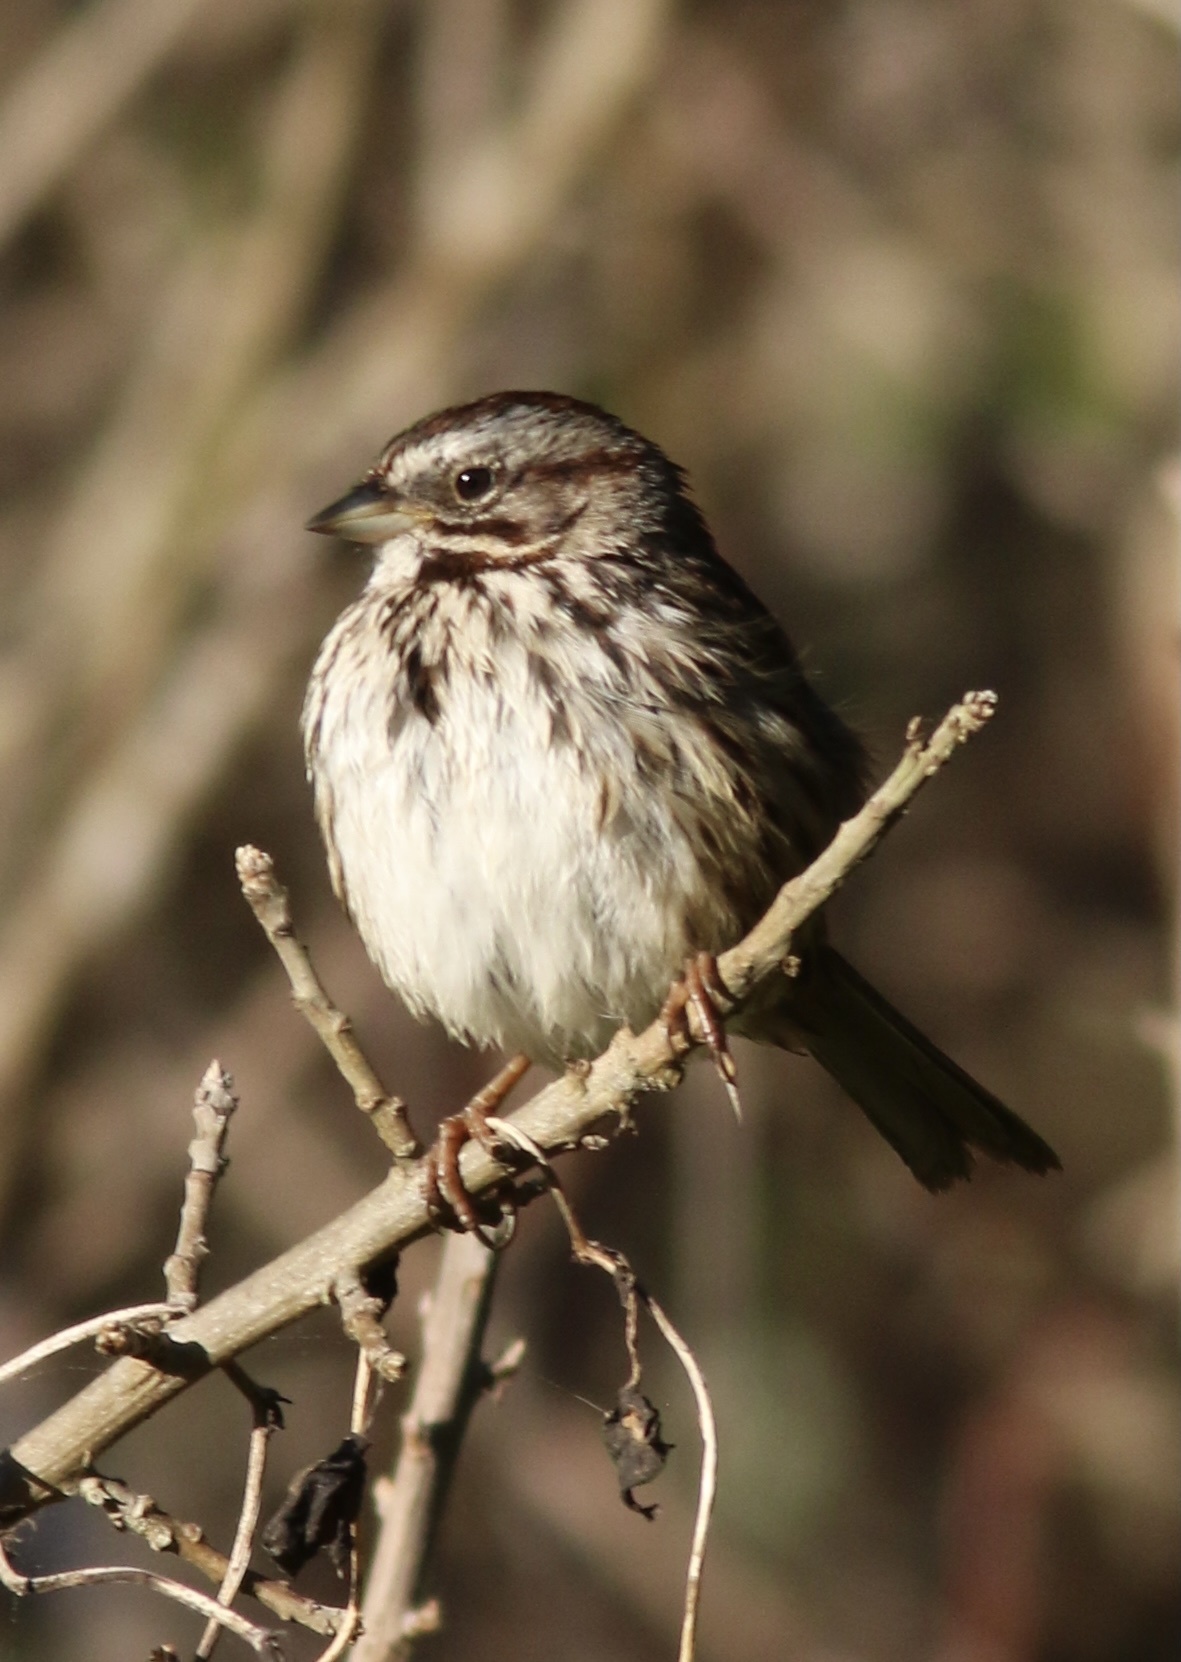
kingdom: Animalia
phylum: Chordata
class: Aves
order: Passeriformes
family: Passerellidae
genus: Melospiza
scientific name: Melospiza melodia
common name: Song sparrow
